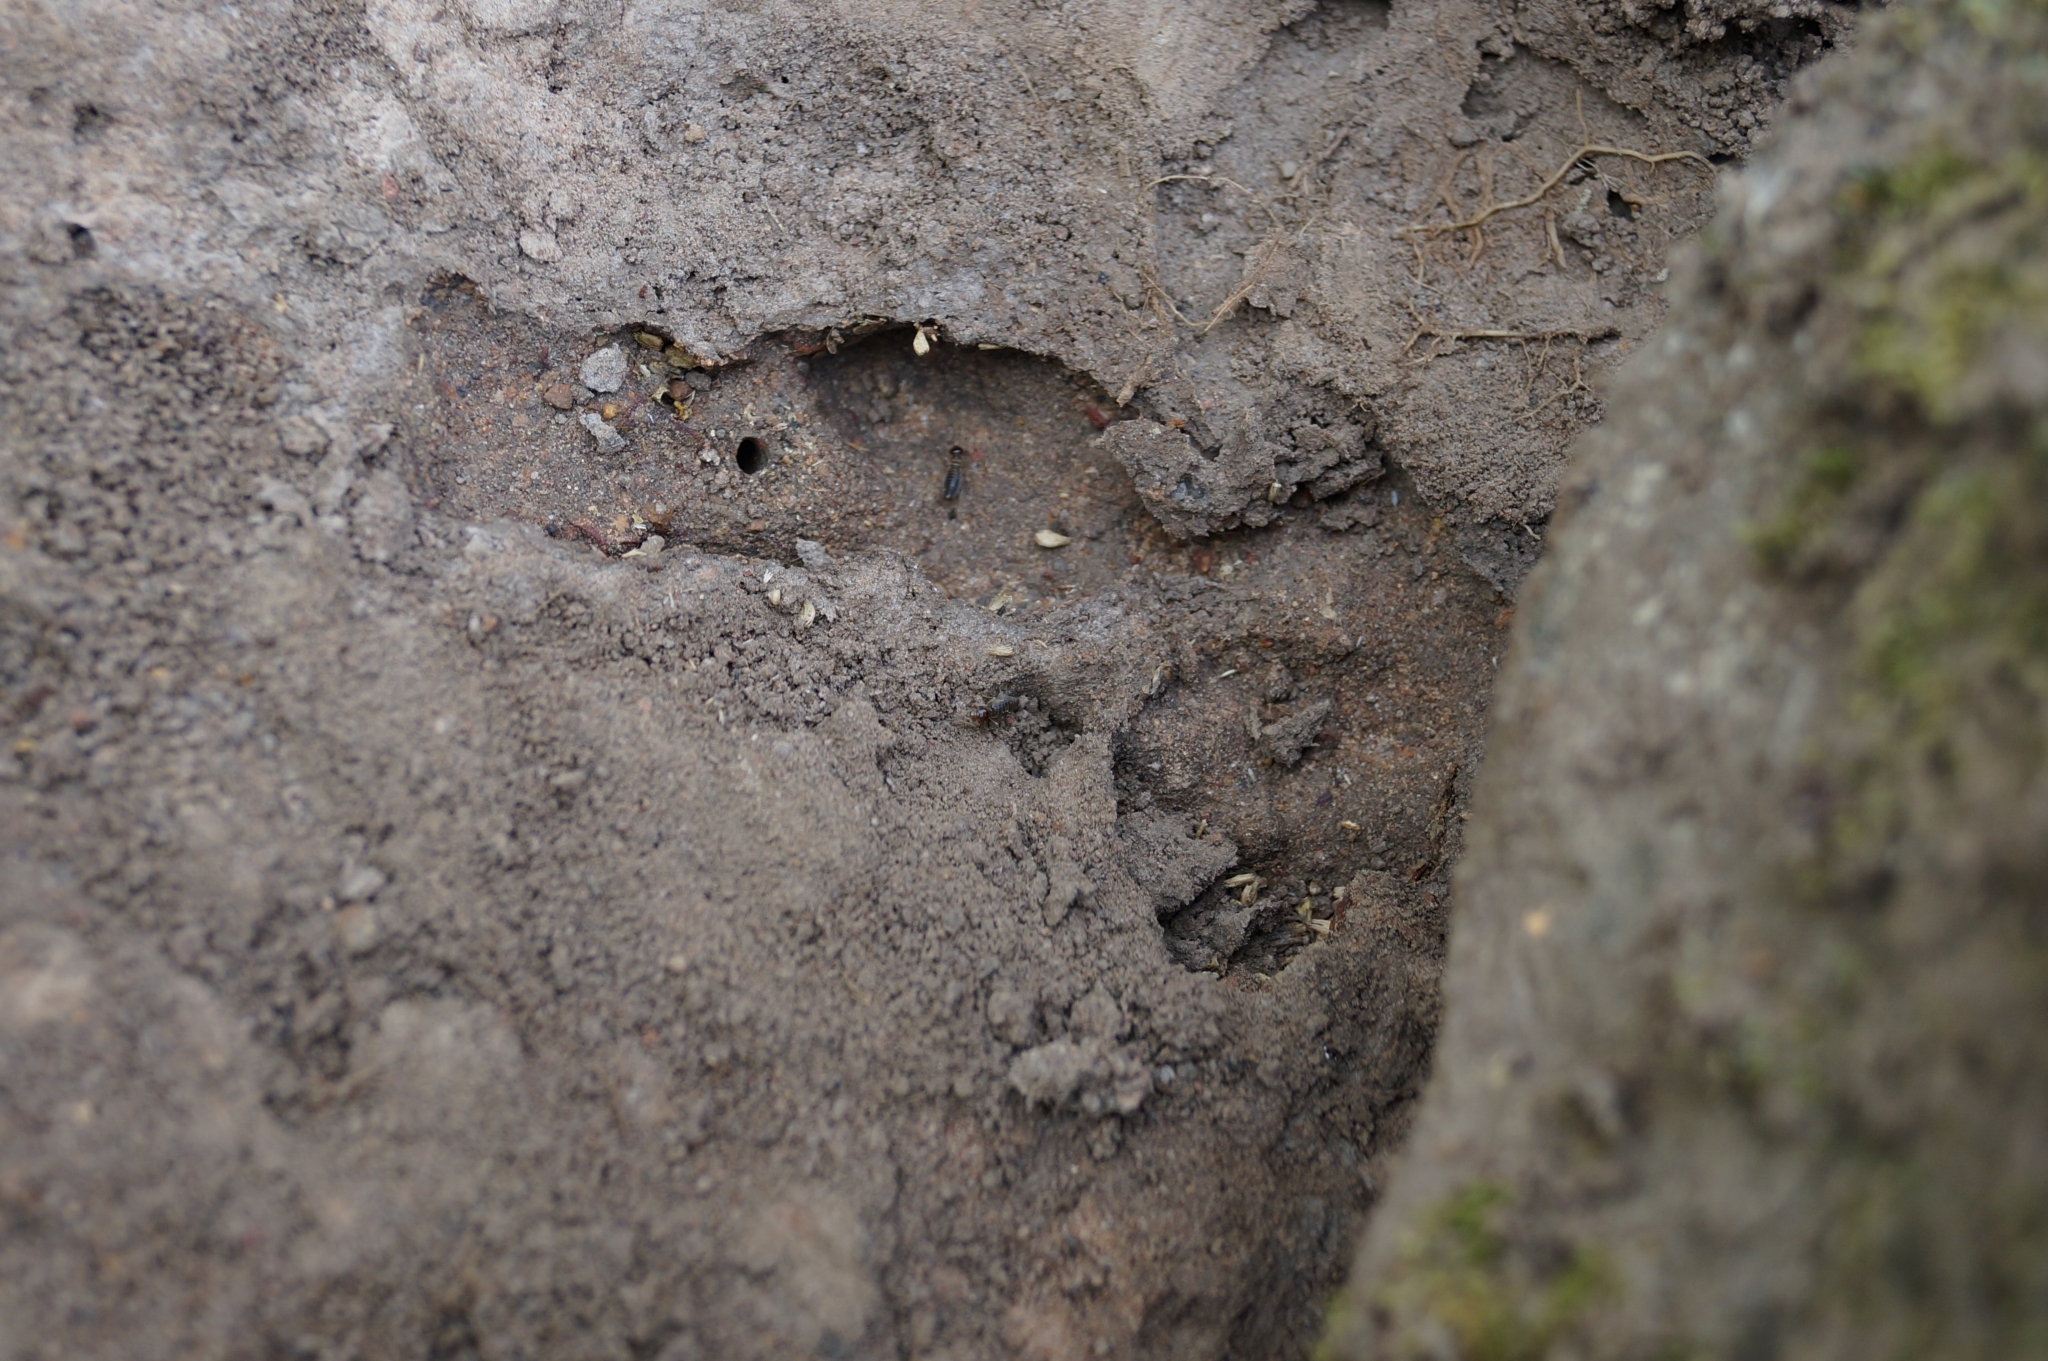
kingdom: Animalia
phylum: Arthropoda
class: Insecta
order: Blattodea
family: Termitidae
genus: Speculitermes
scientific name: Speculitermes macrodentatus
